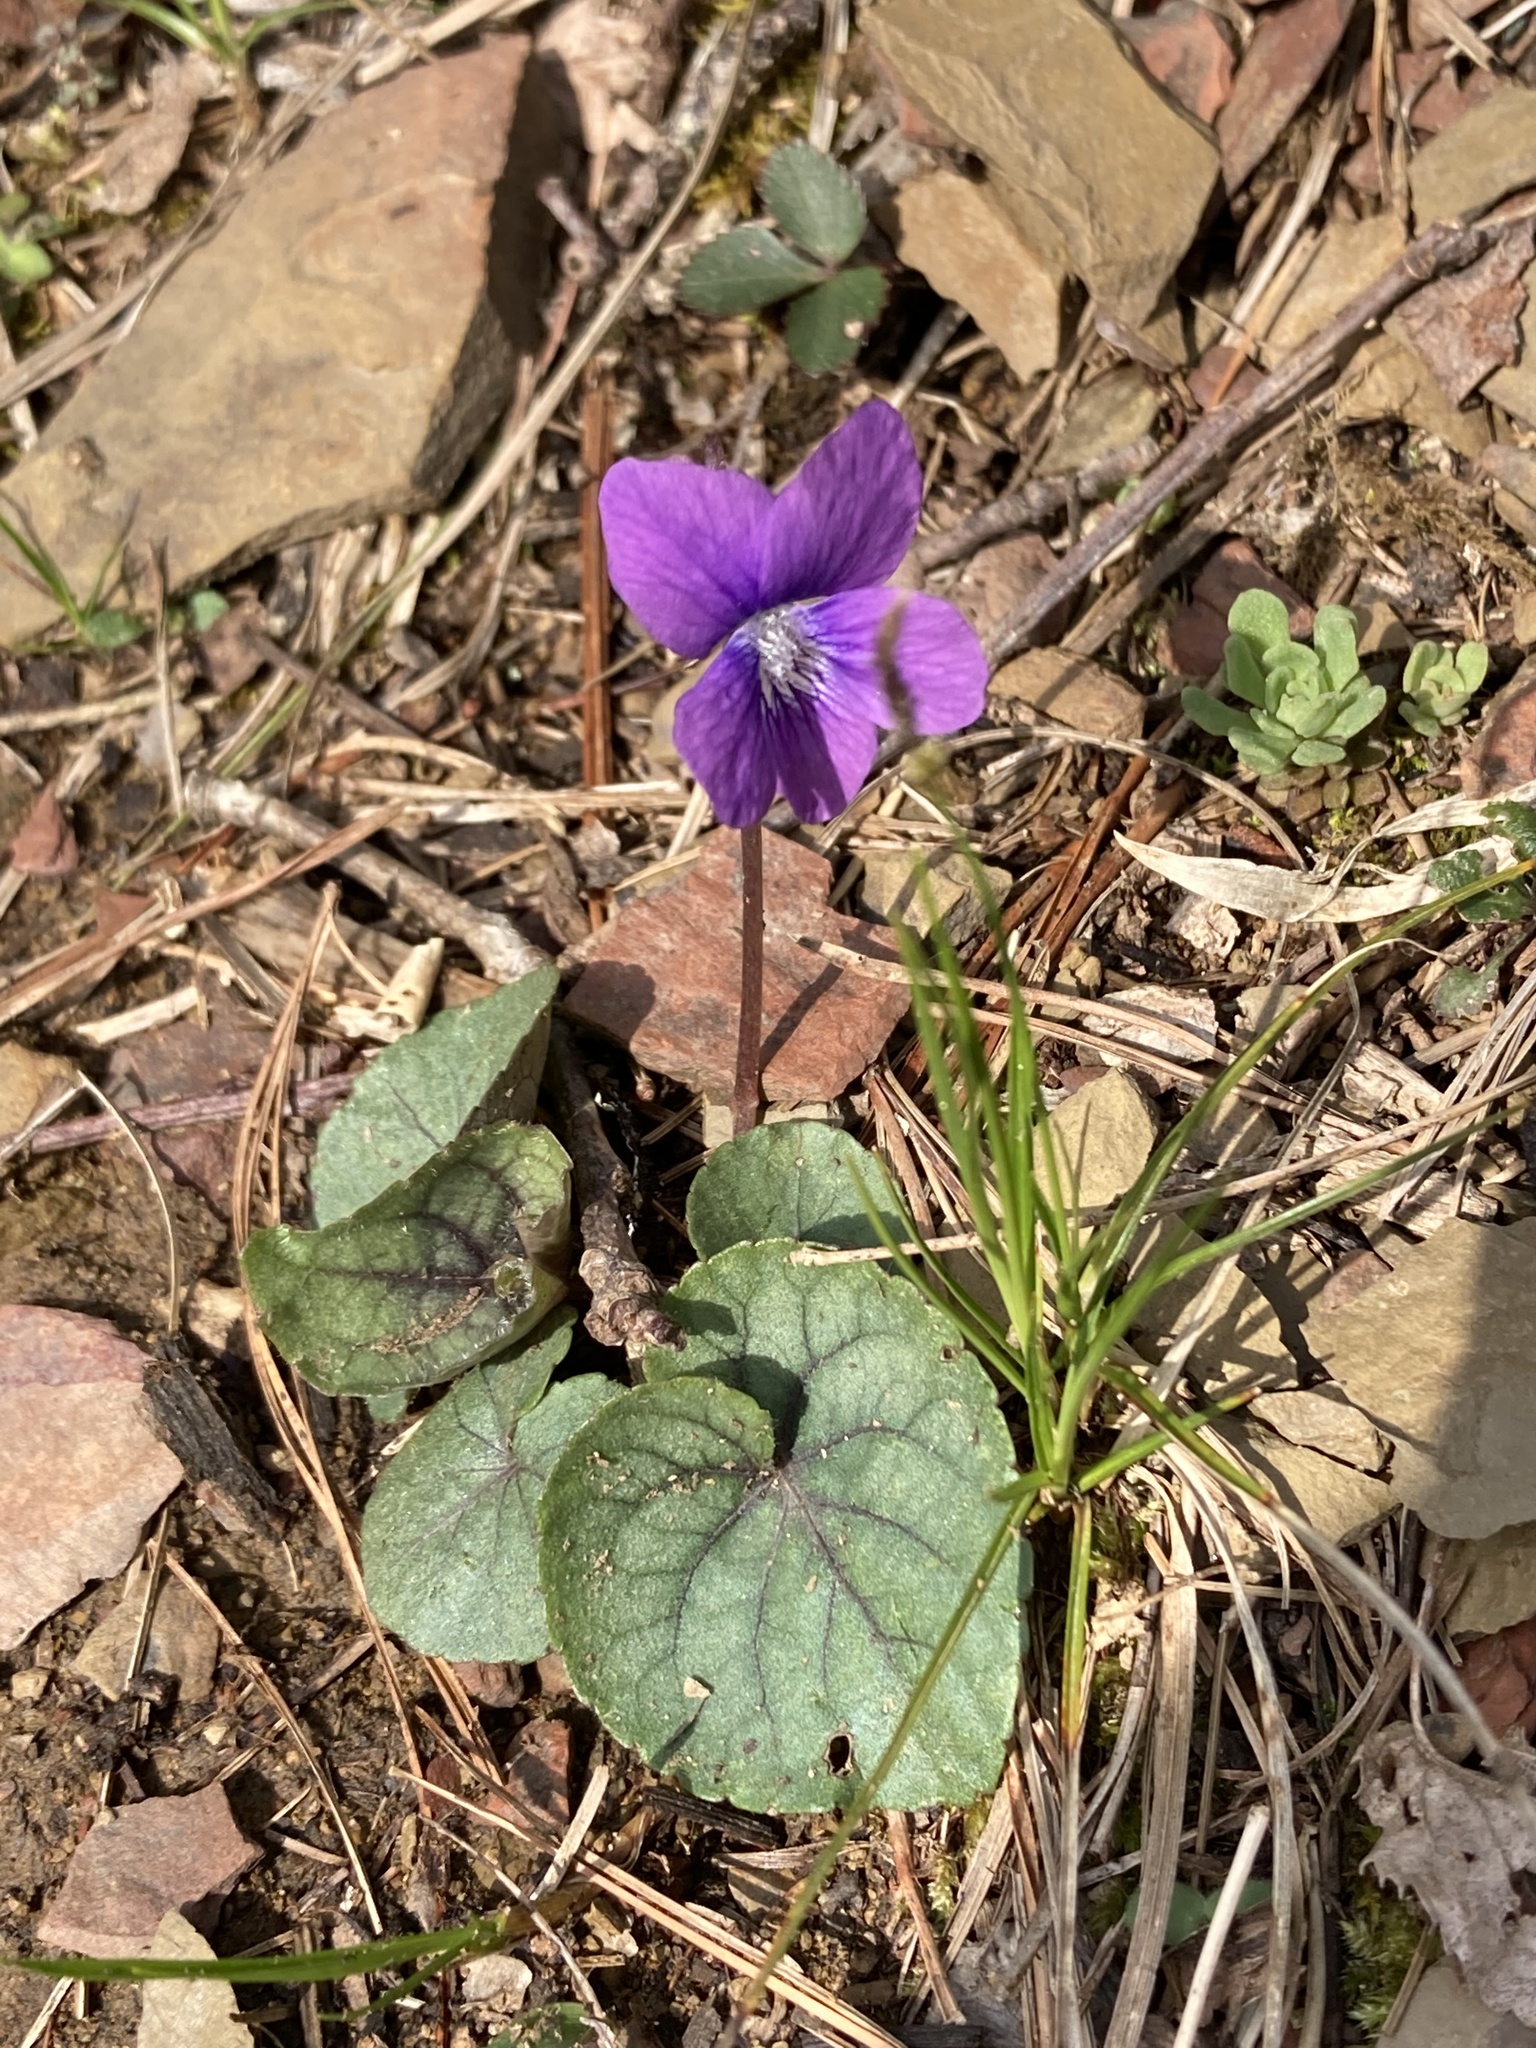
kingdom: Plantae
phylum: Tracheophyta
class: Magnoliopsida
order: Malpighiales
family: Violaceae
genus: Viola
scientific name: Viola sororia
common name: Dooryard violet
